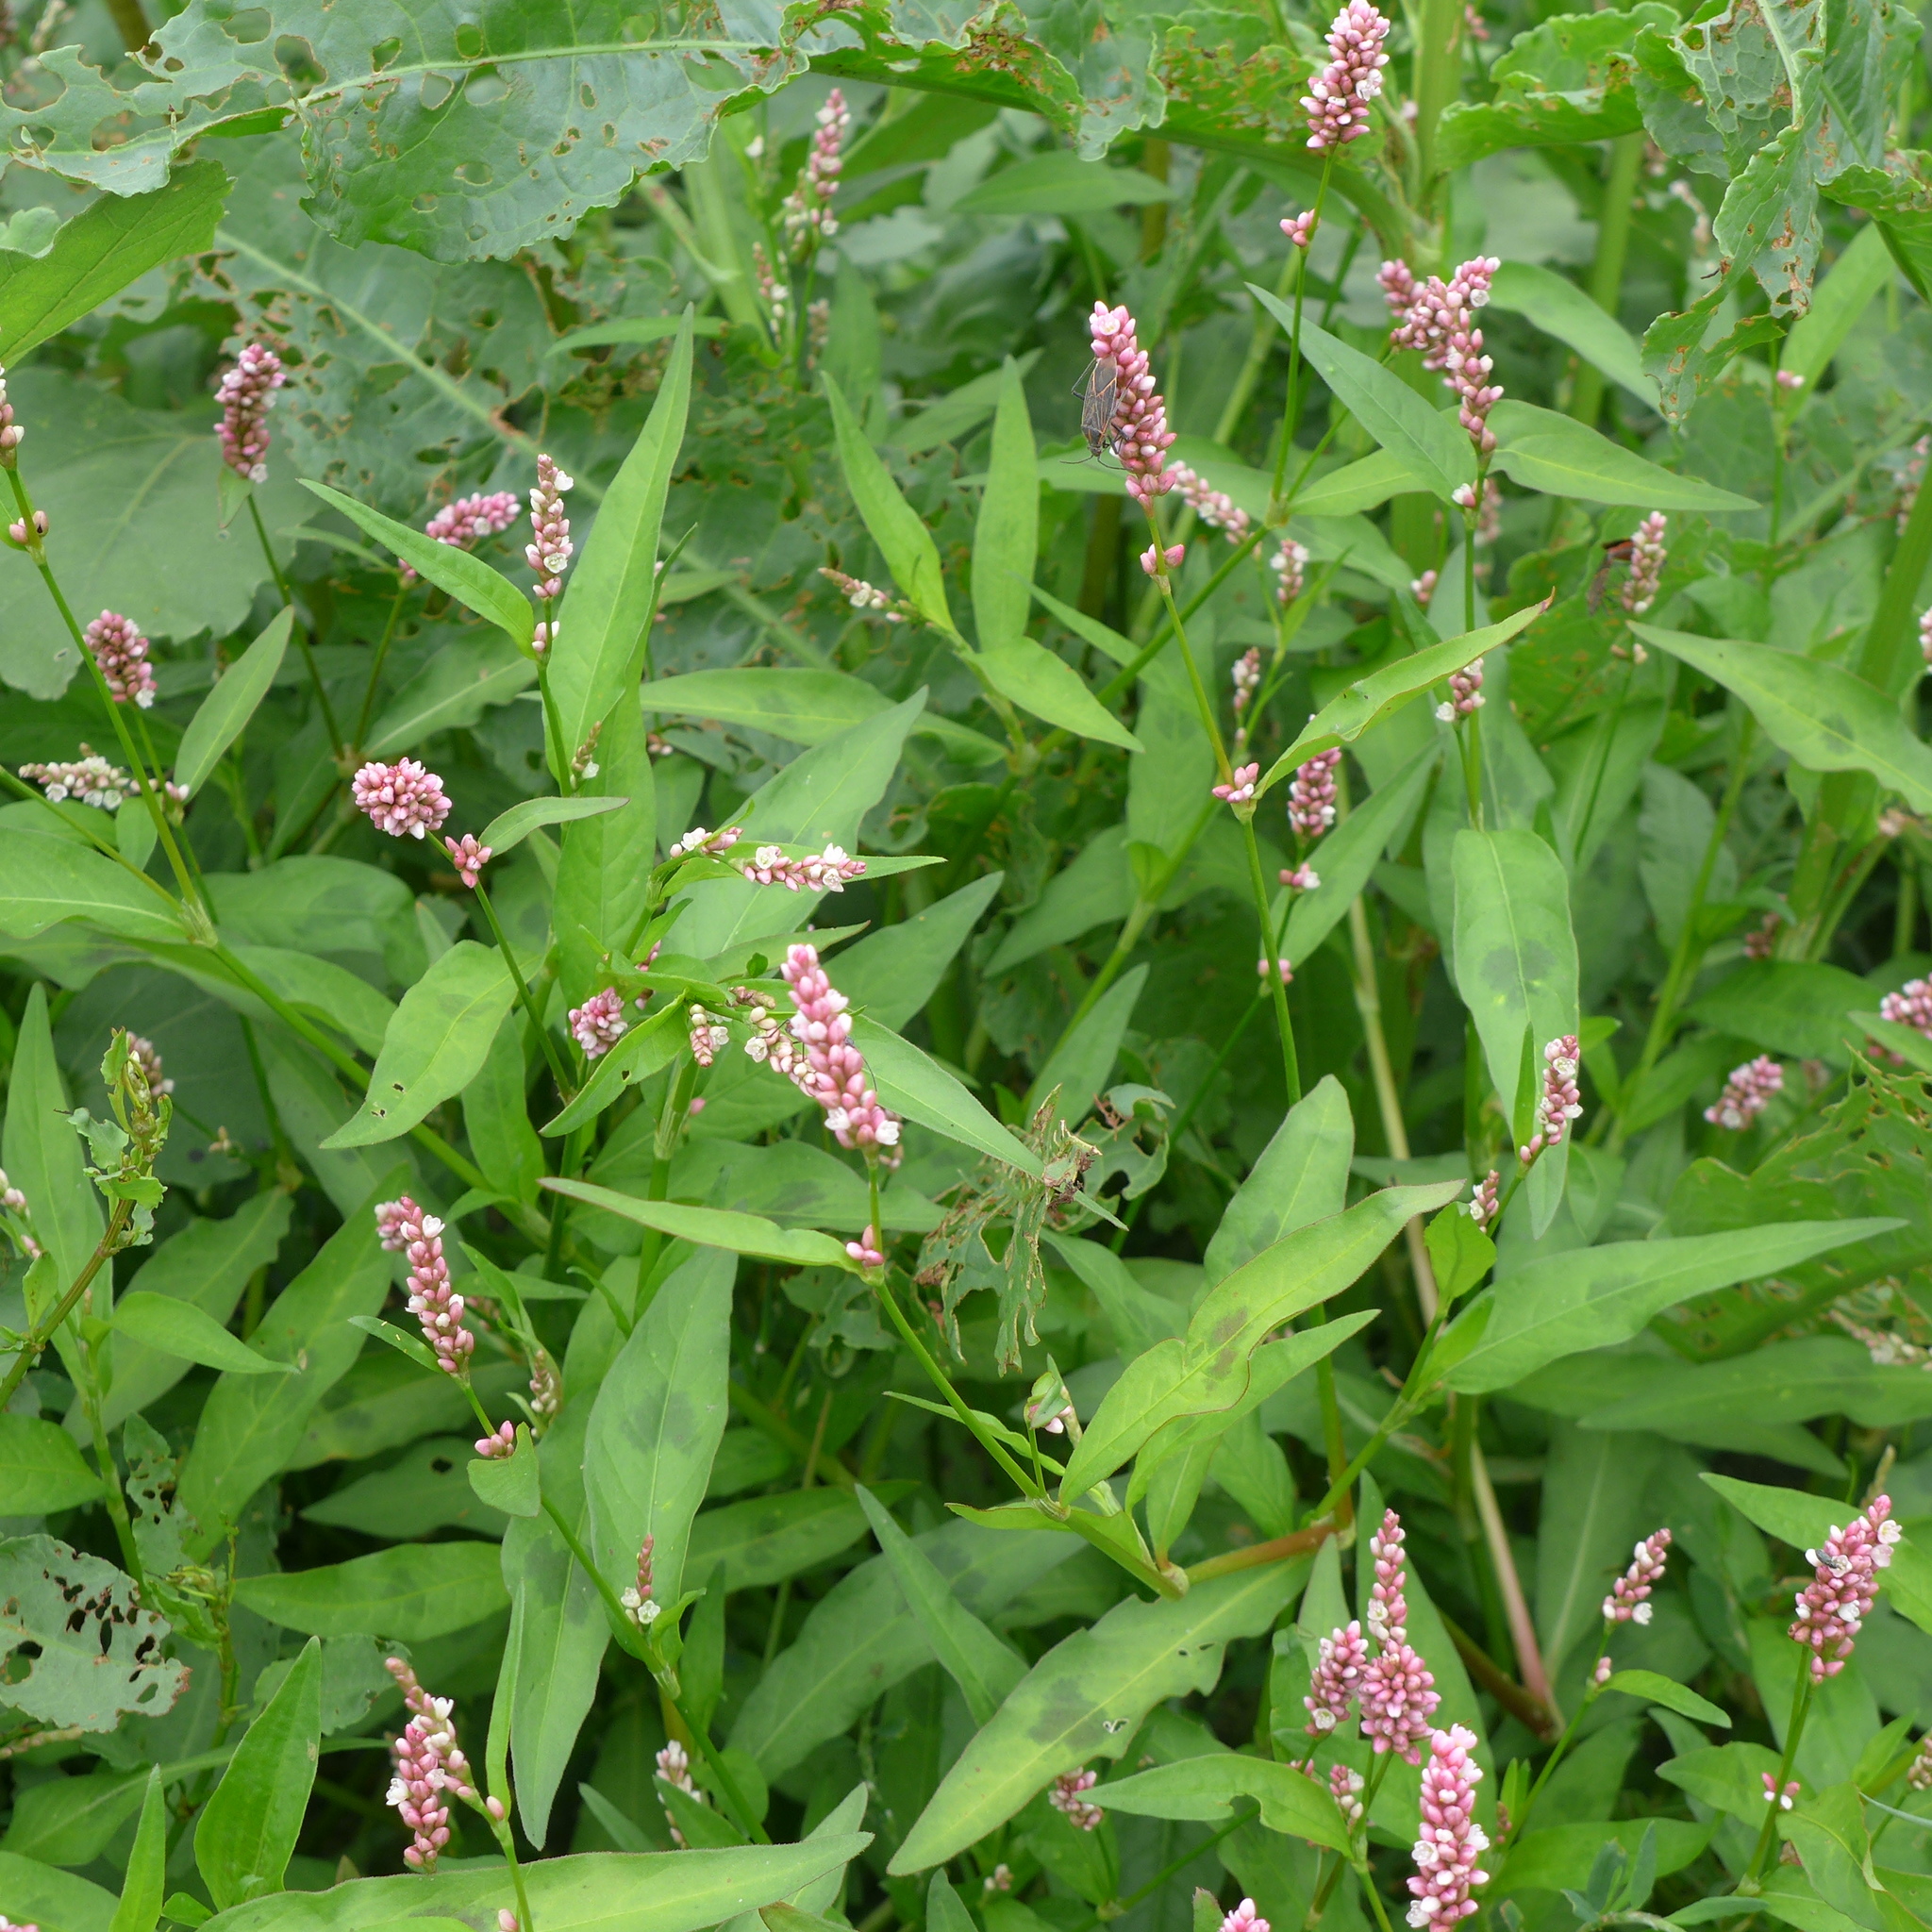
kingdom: Plantae
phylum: Tracheophyta
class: Magnoliopsida
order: Caryophyllales
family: Polygonaceae
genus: Persicaria
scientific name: Persicaria maculosa
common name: Redshank
